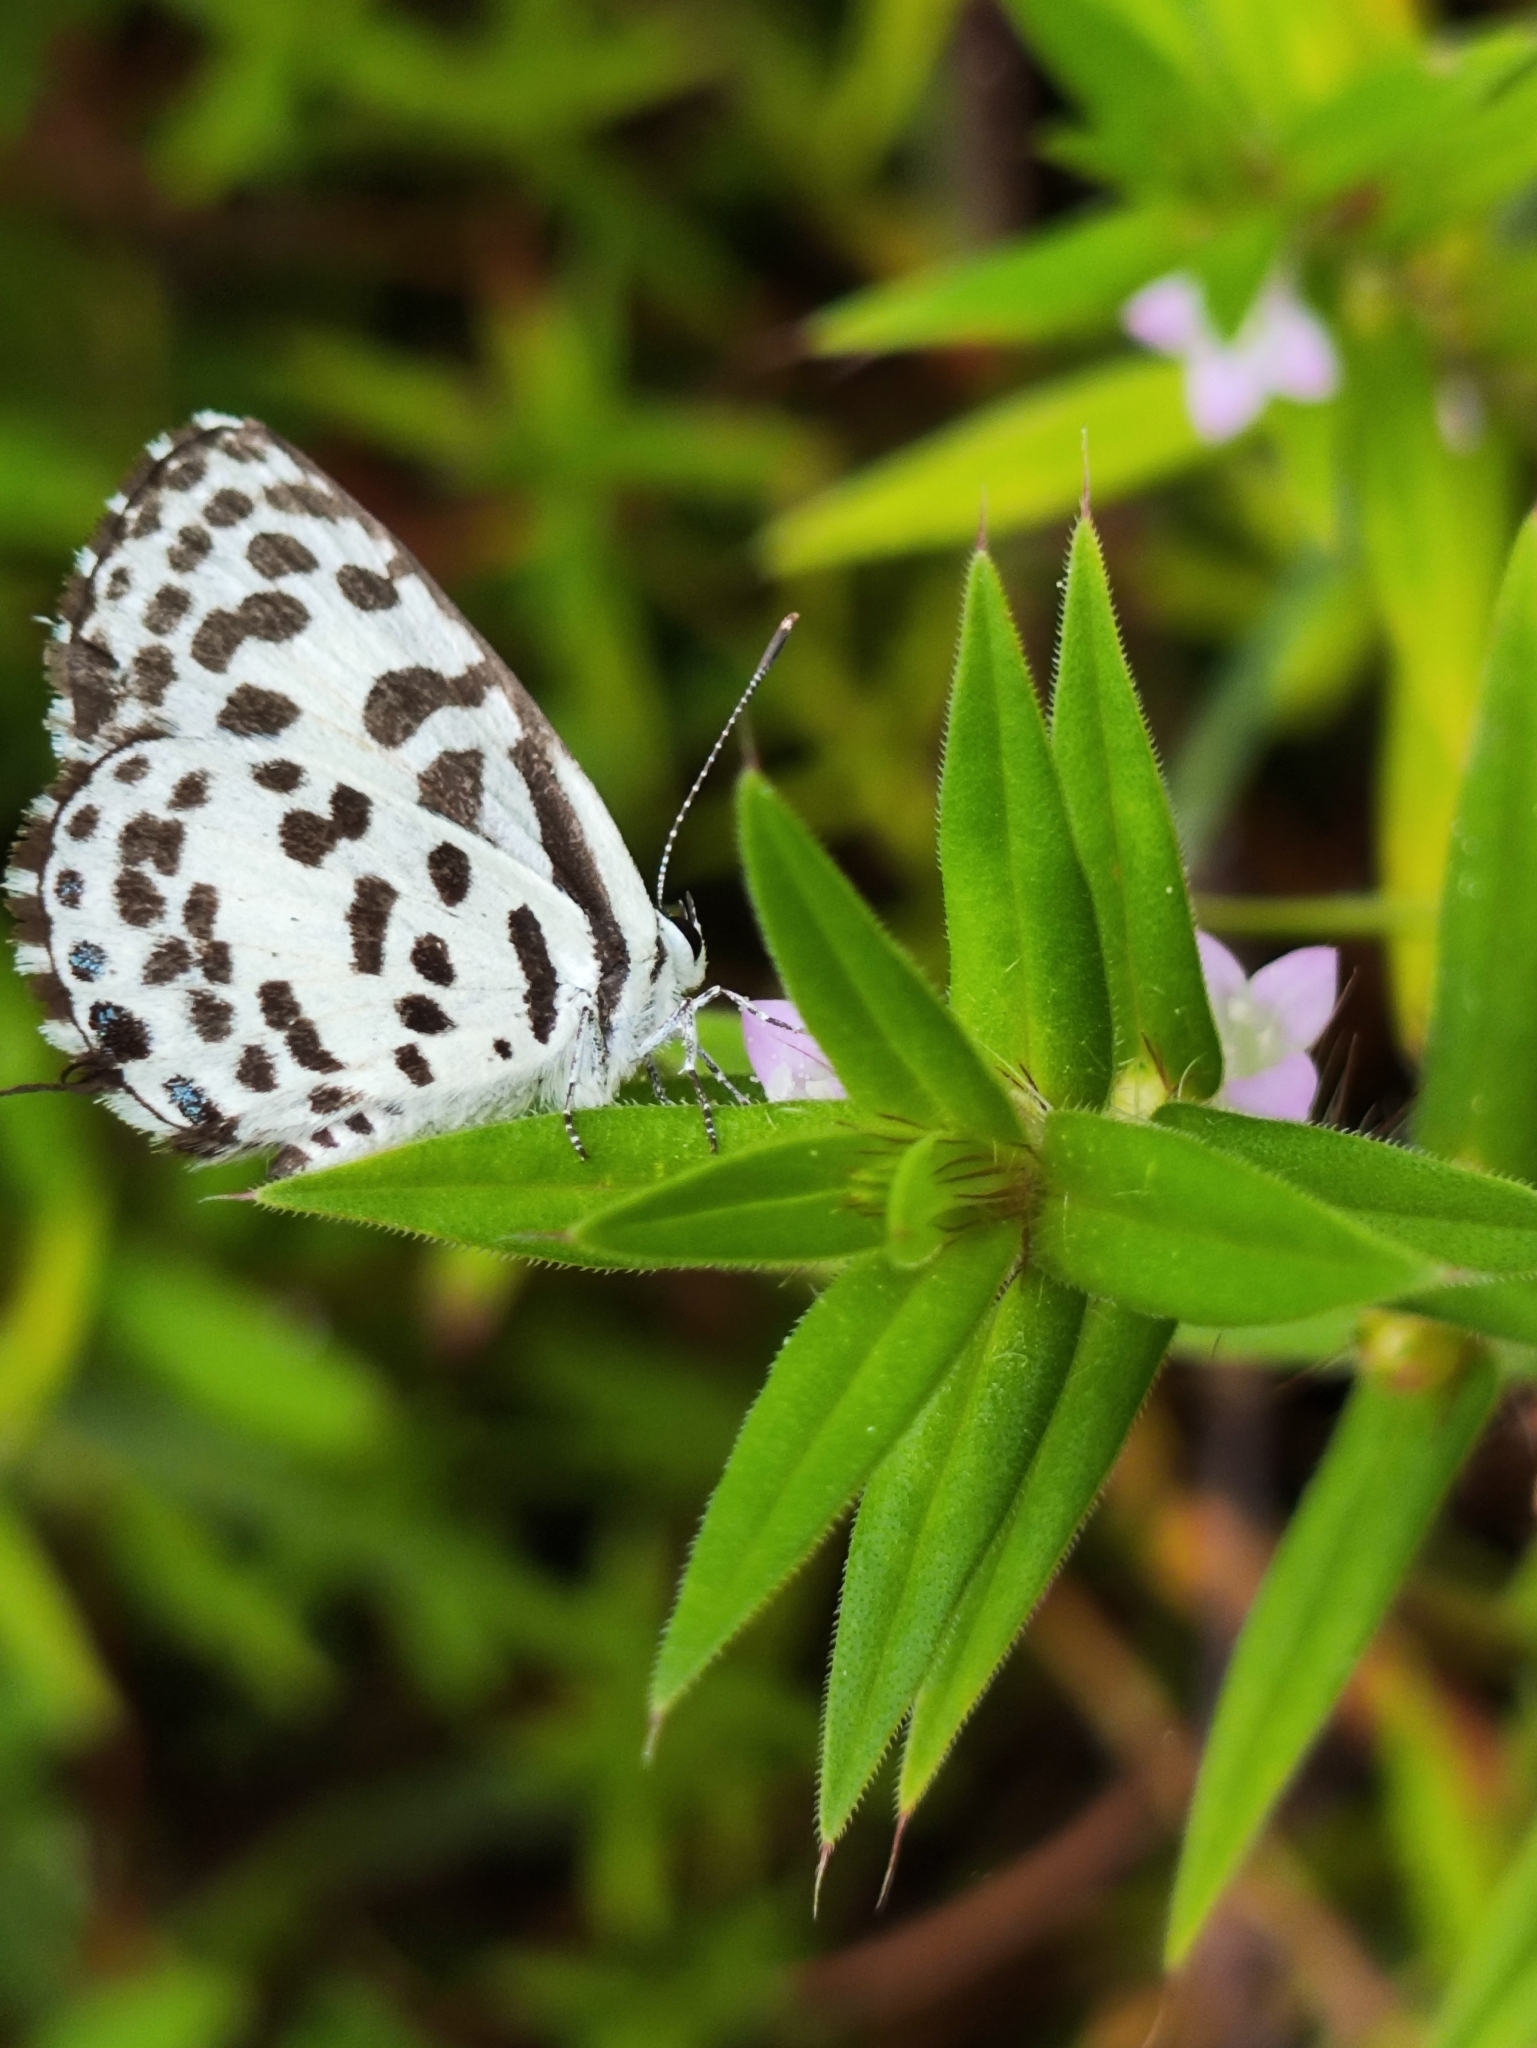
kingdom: Animalia
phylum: Arthropoda
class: Insecta
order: Lepidoptera
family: Lycaenidae
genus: Castalius
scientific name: Castalius rosimon
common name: Common pierrot
